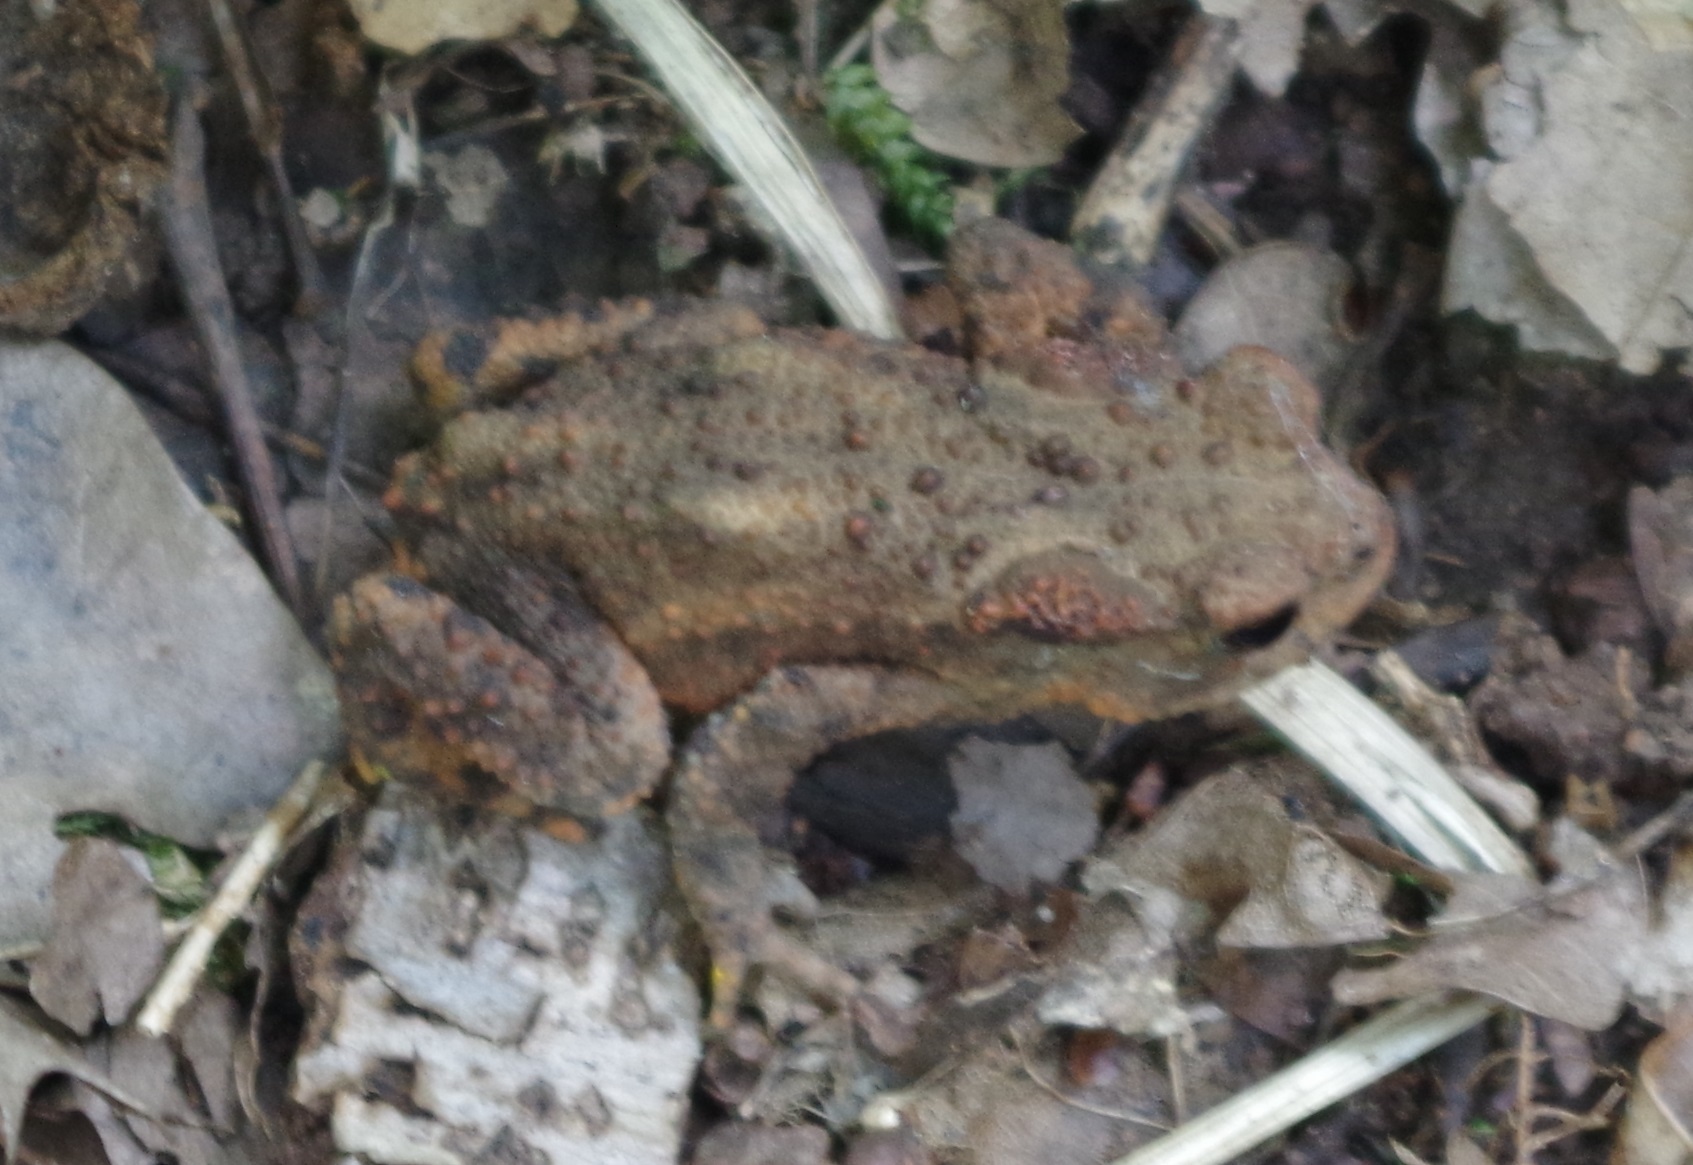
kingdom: Animalia
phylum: Chordata
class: Amphibia
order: Anura
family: Bufonidae
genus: Bufo
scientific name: Bufo bufo
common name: Common toad
